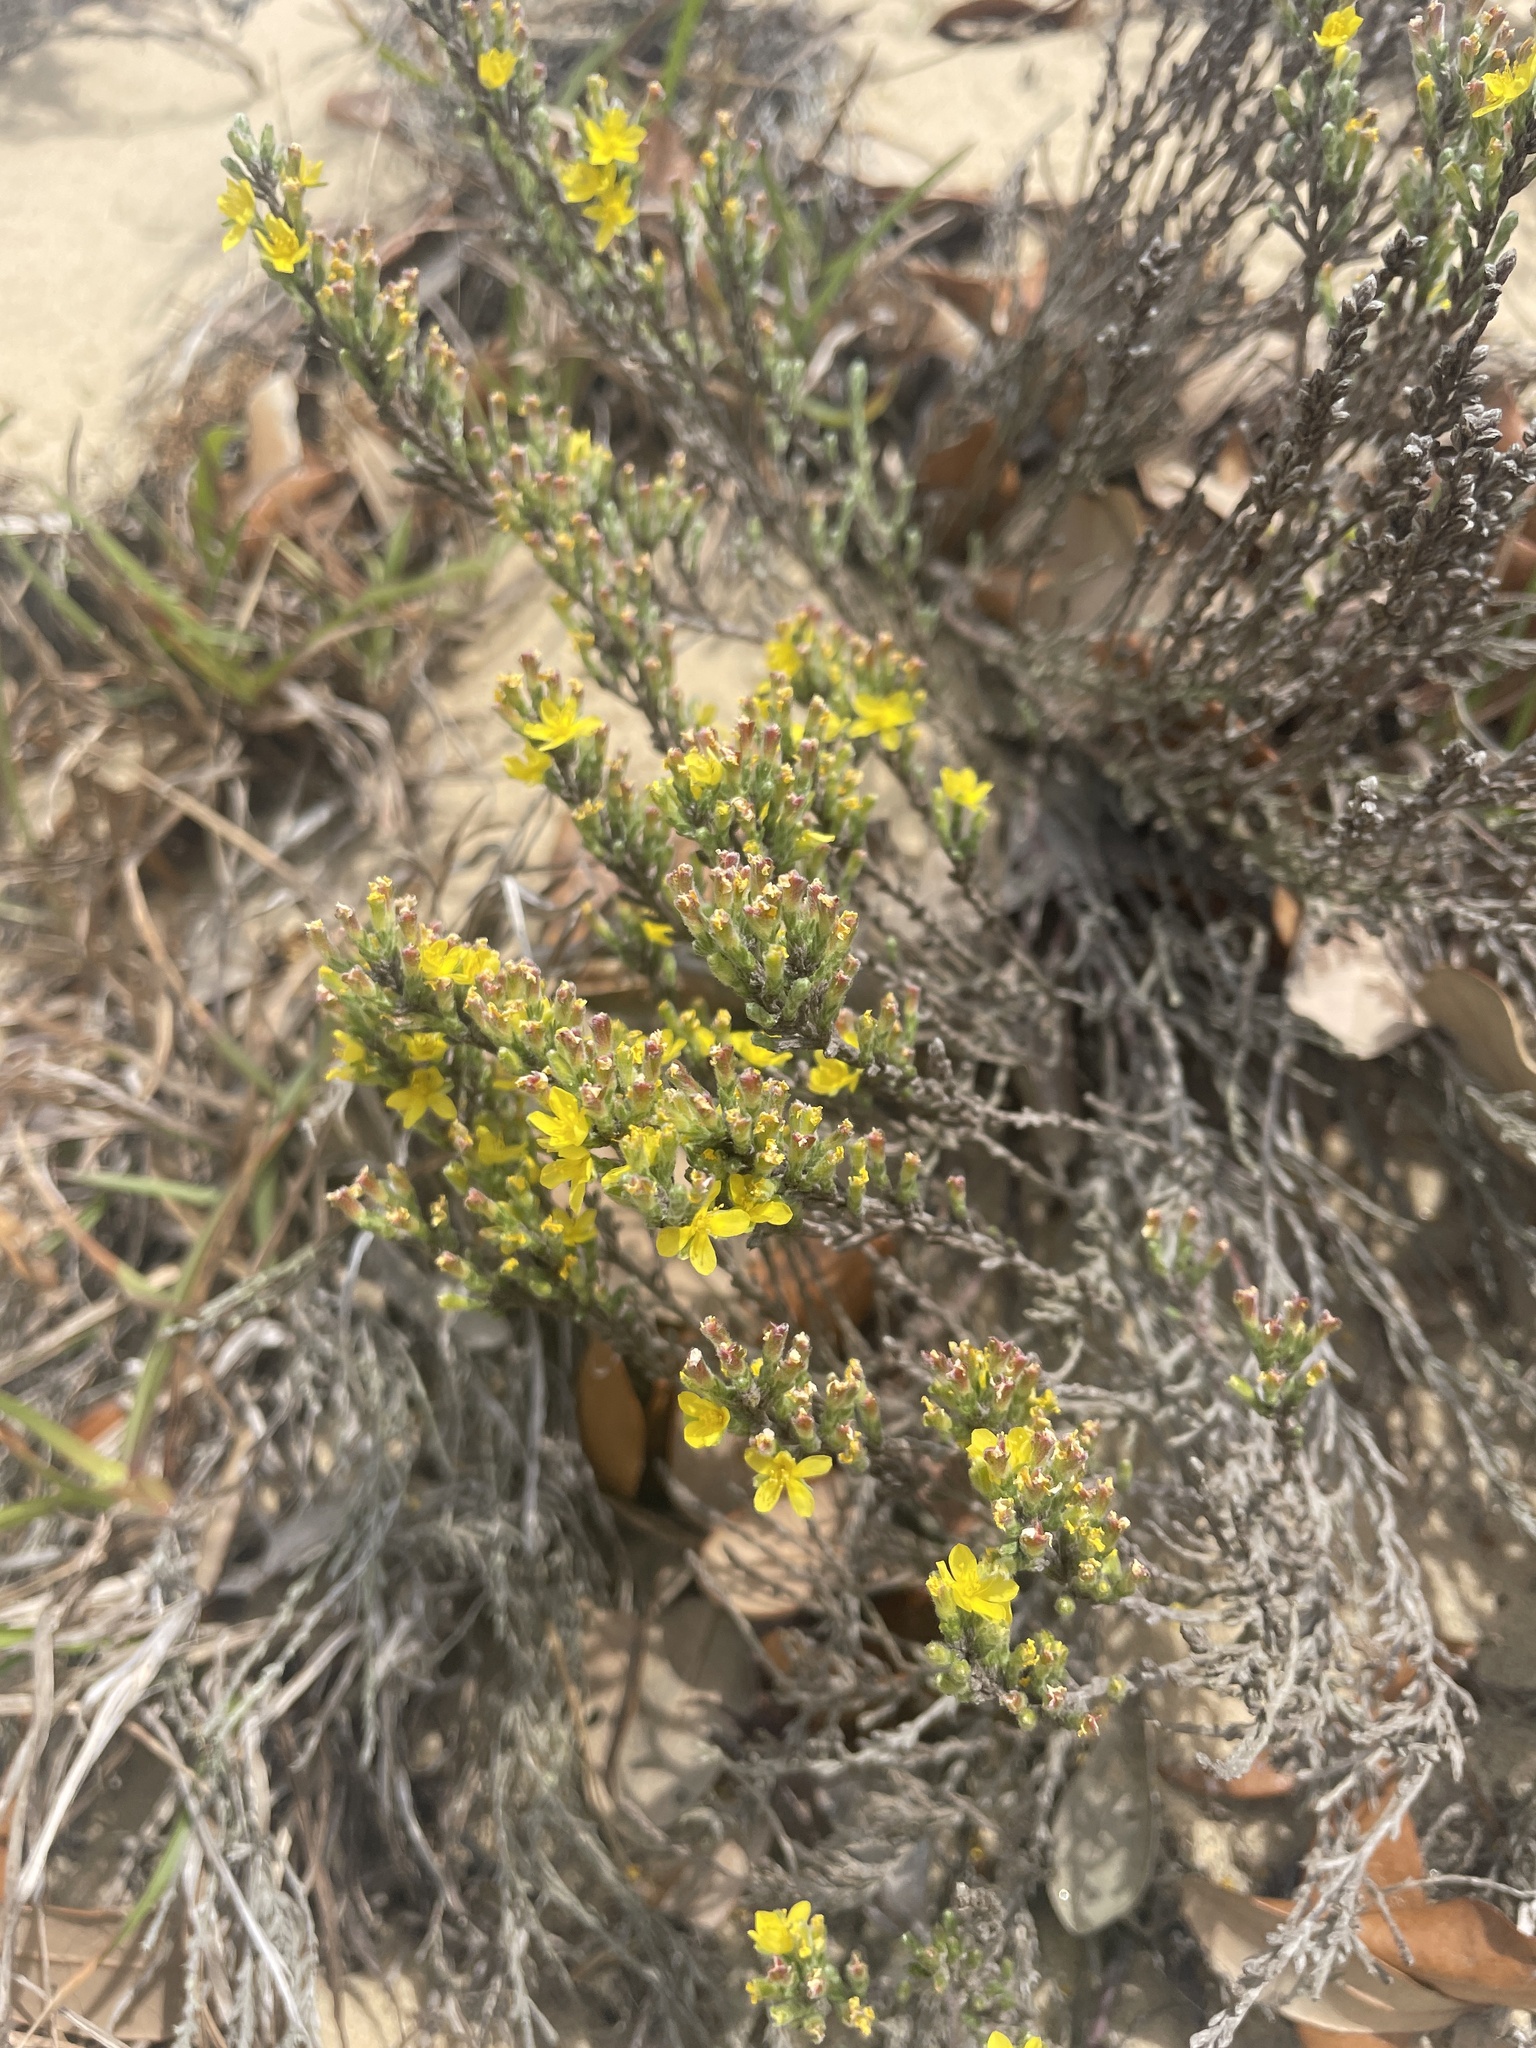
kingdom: Plantae
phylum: Tracheophyta
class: Magnoliopsida
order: Malvales
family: Cistaceae
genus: Hudsonia
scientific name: Hudsonia tomentosa
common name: Beach-heath
